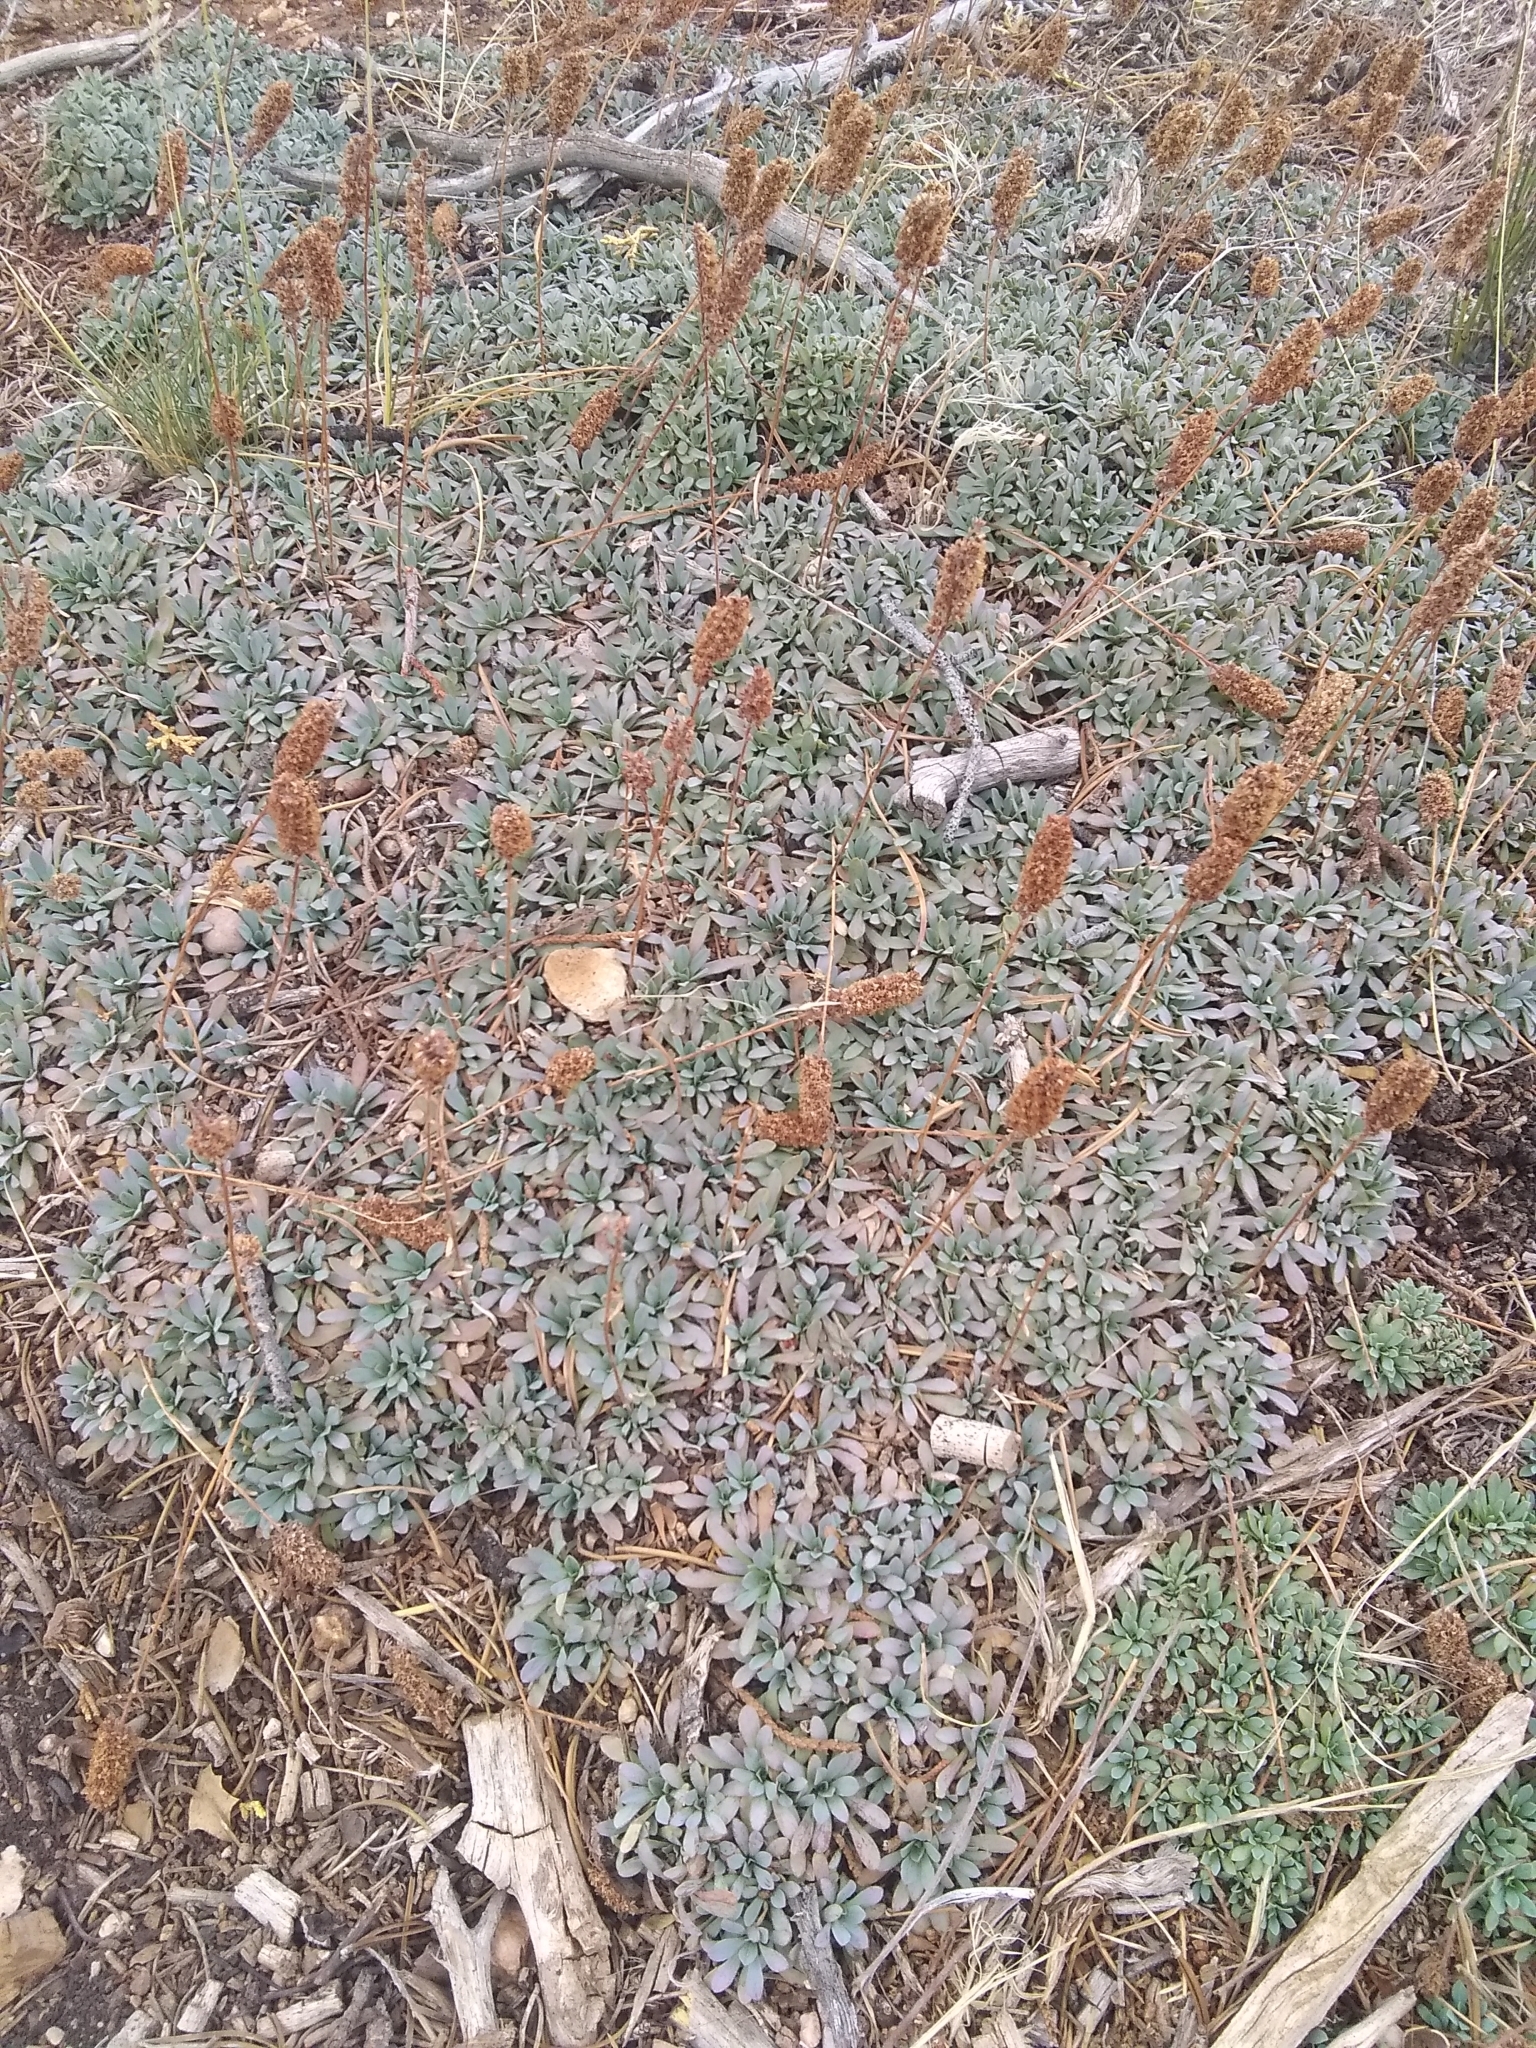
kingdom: Plantae
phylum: Tracheophyta
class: Magnoliopsida
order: Rosales
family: Rosaceae
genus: Petrophytum
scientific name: Petrophytum caespitosum
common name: Mat rockspirea
